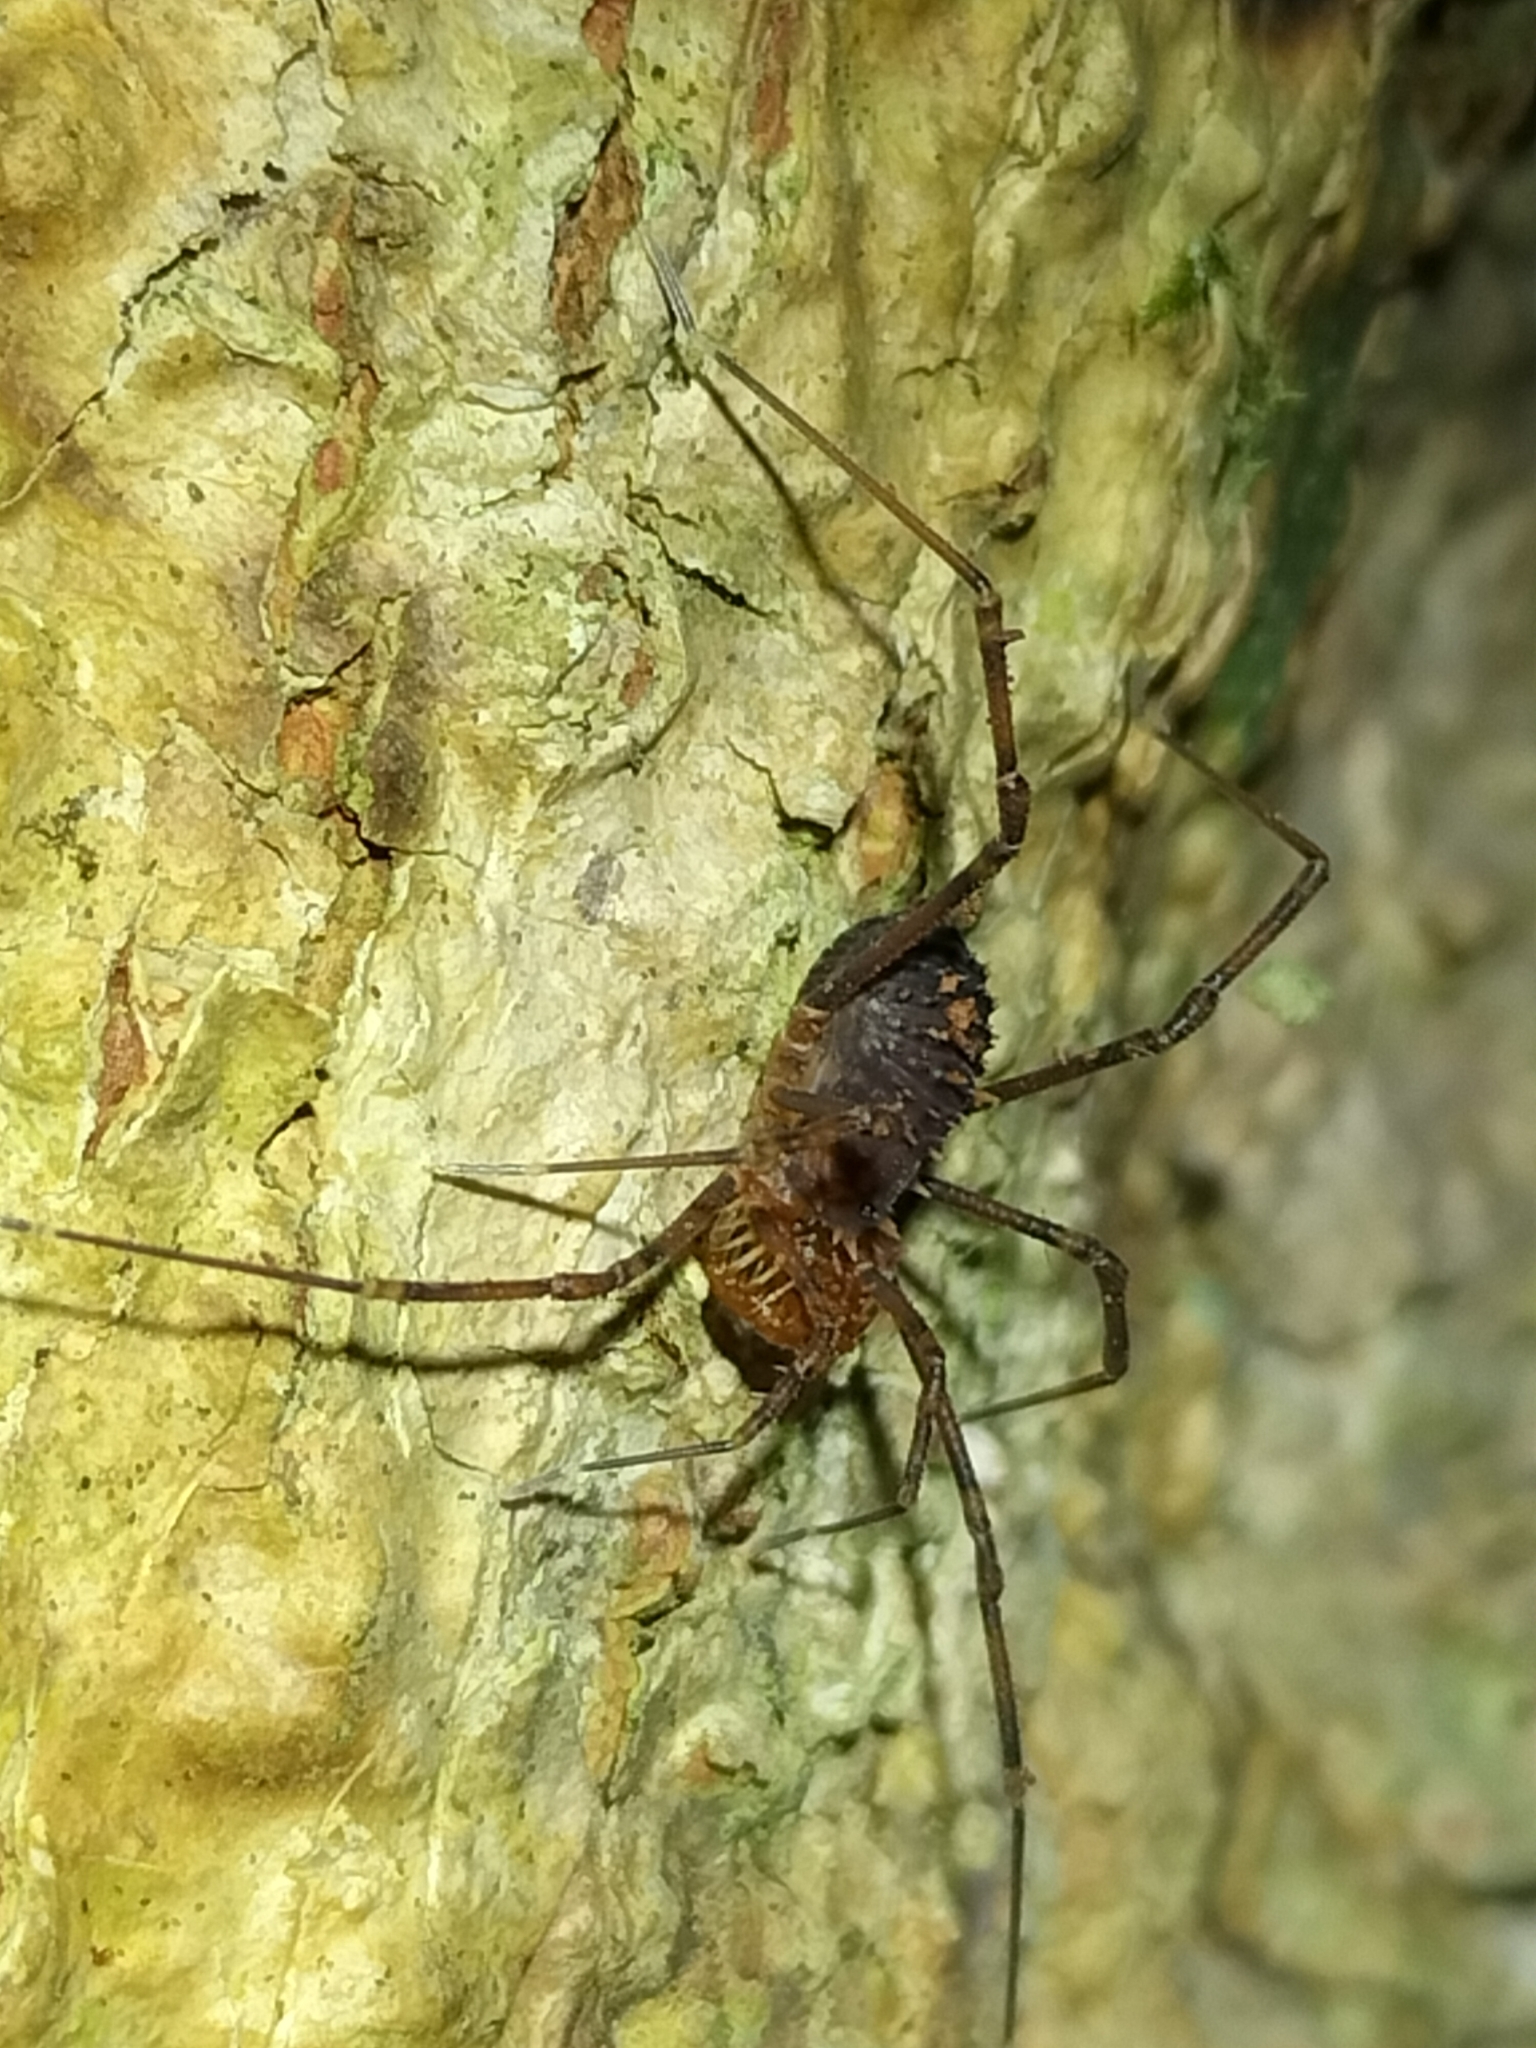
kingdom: Animalia
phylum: Arthropoda
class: Arachnida
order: Opiliones
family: Triaenonychidae
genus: Heteronuncia
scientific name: Heteronuncia robusta
